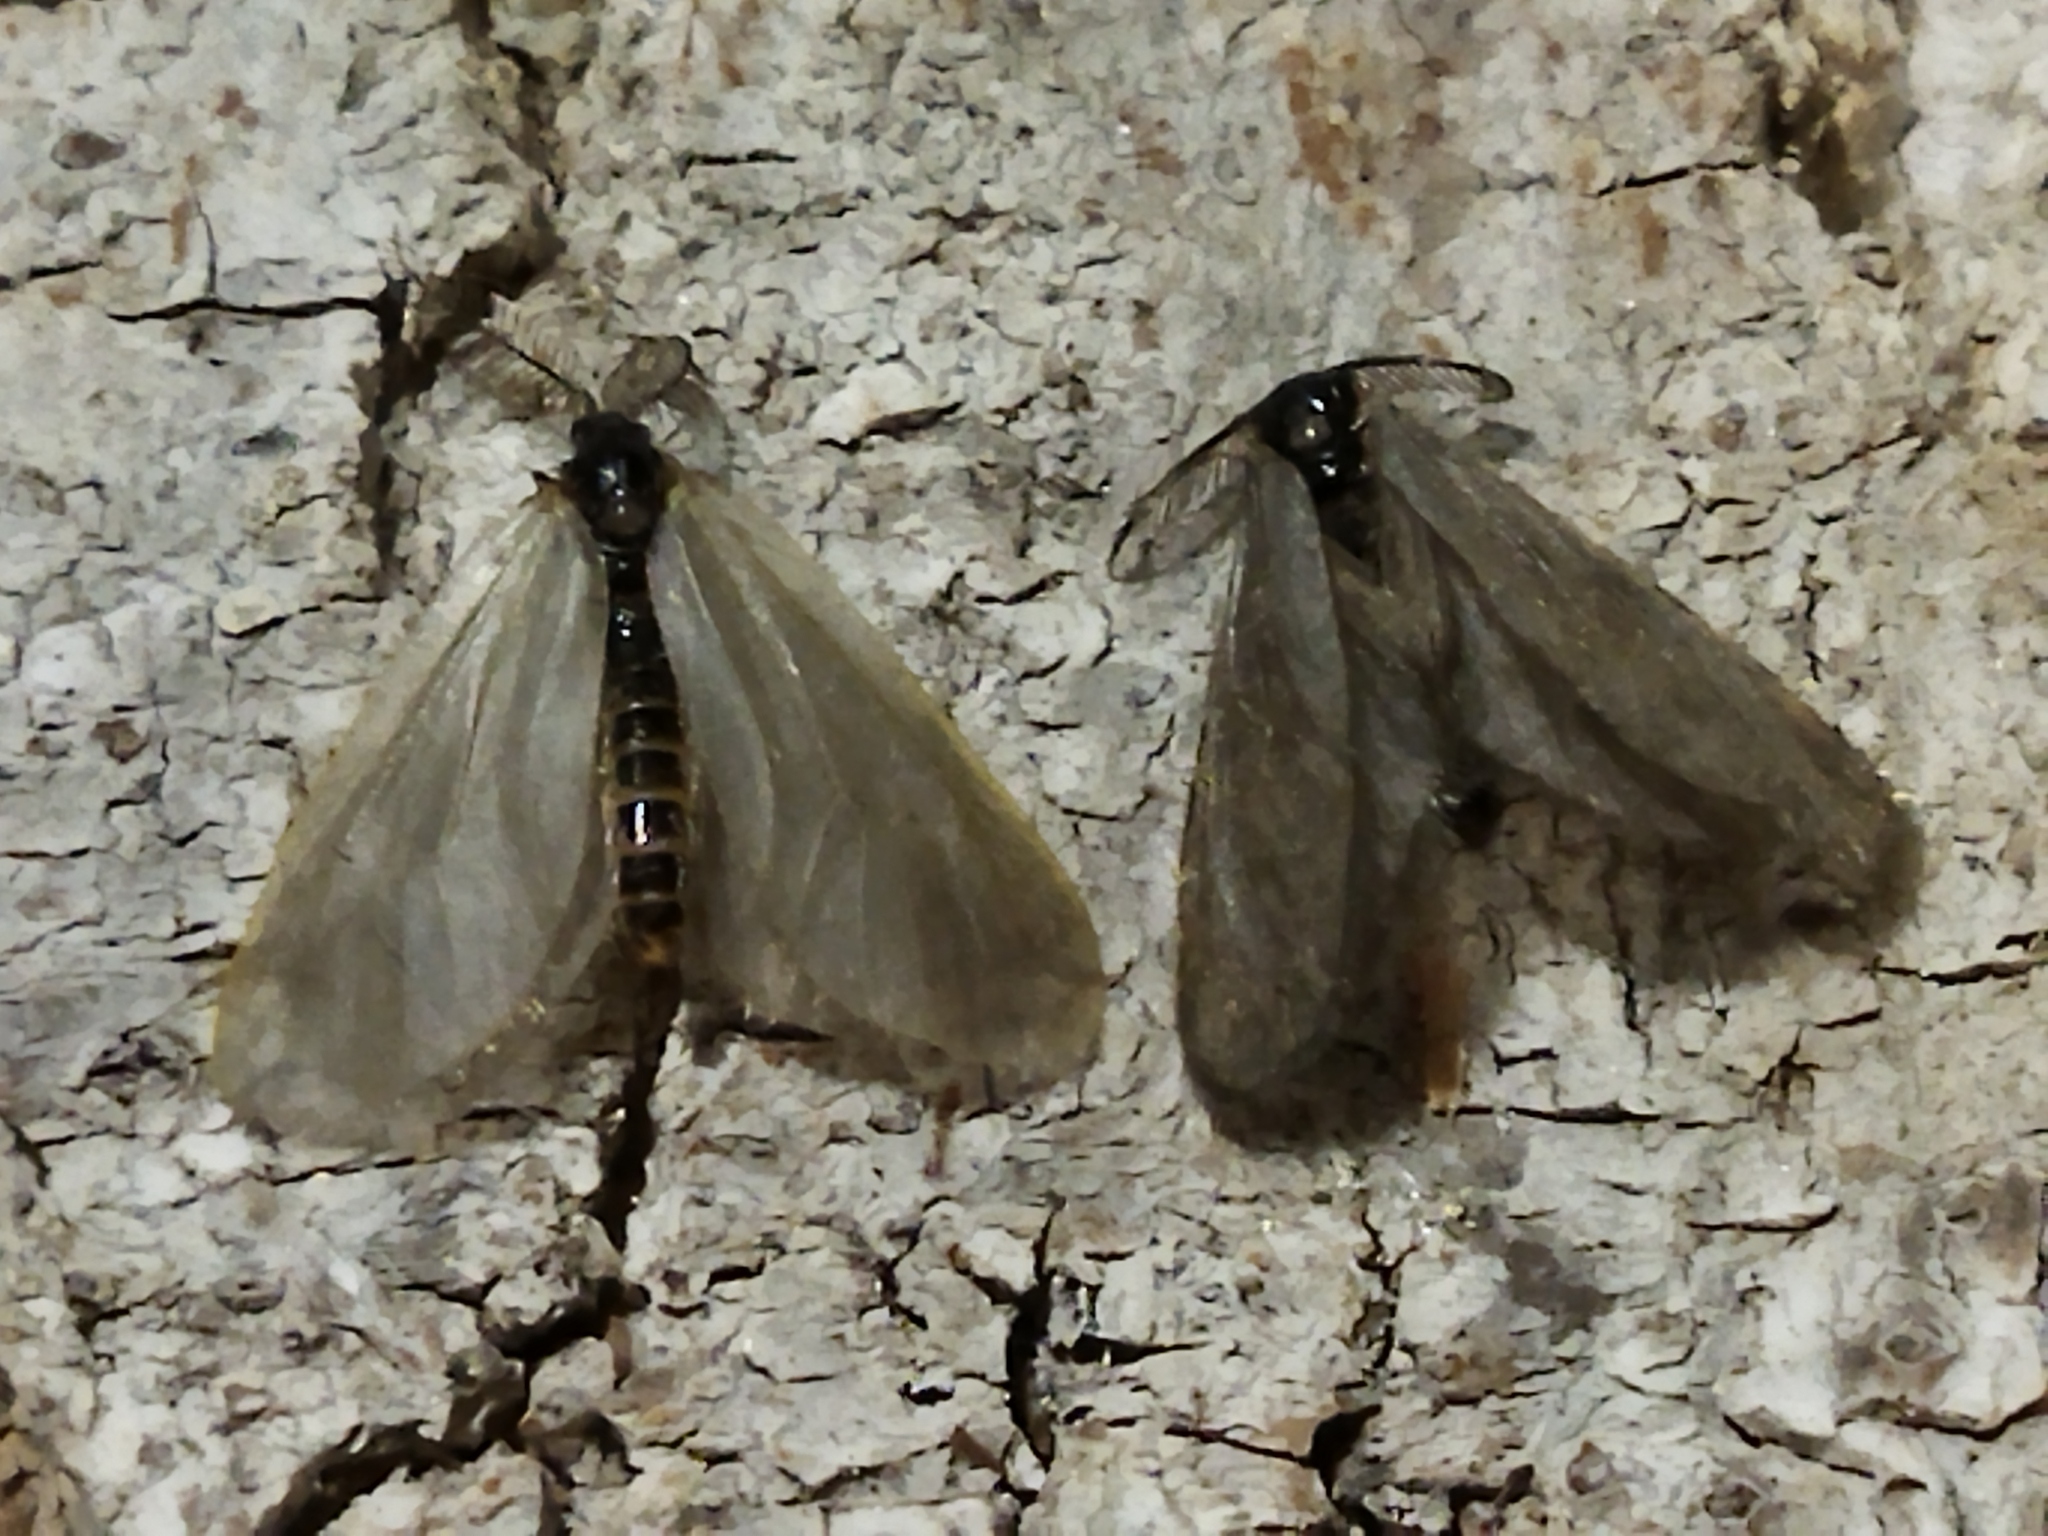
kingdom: Animalia
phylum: Arthropoda
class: Insecta
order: Lepidoptera
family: Psychidae
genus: Rebelia
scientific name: Rebelia perlucidella
